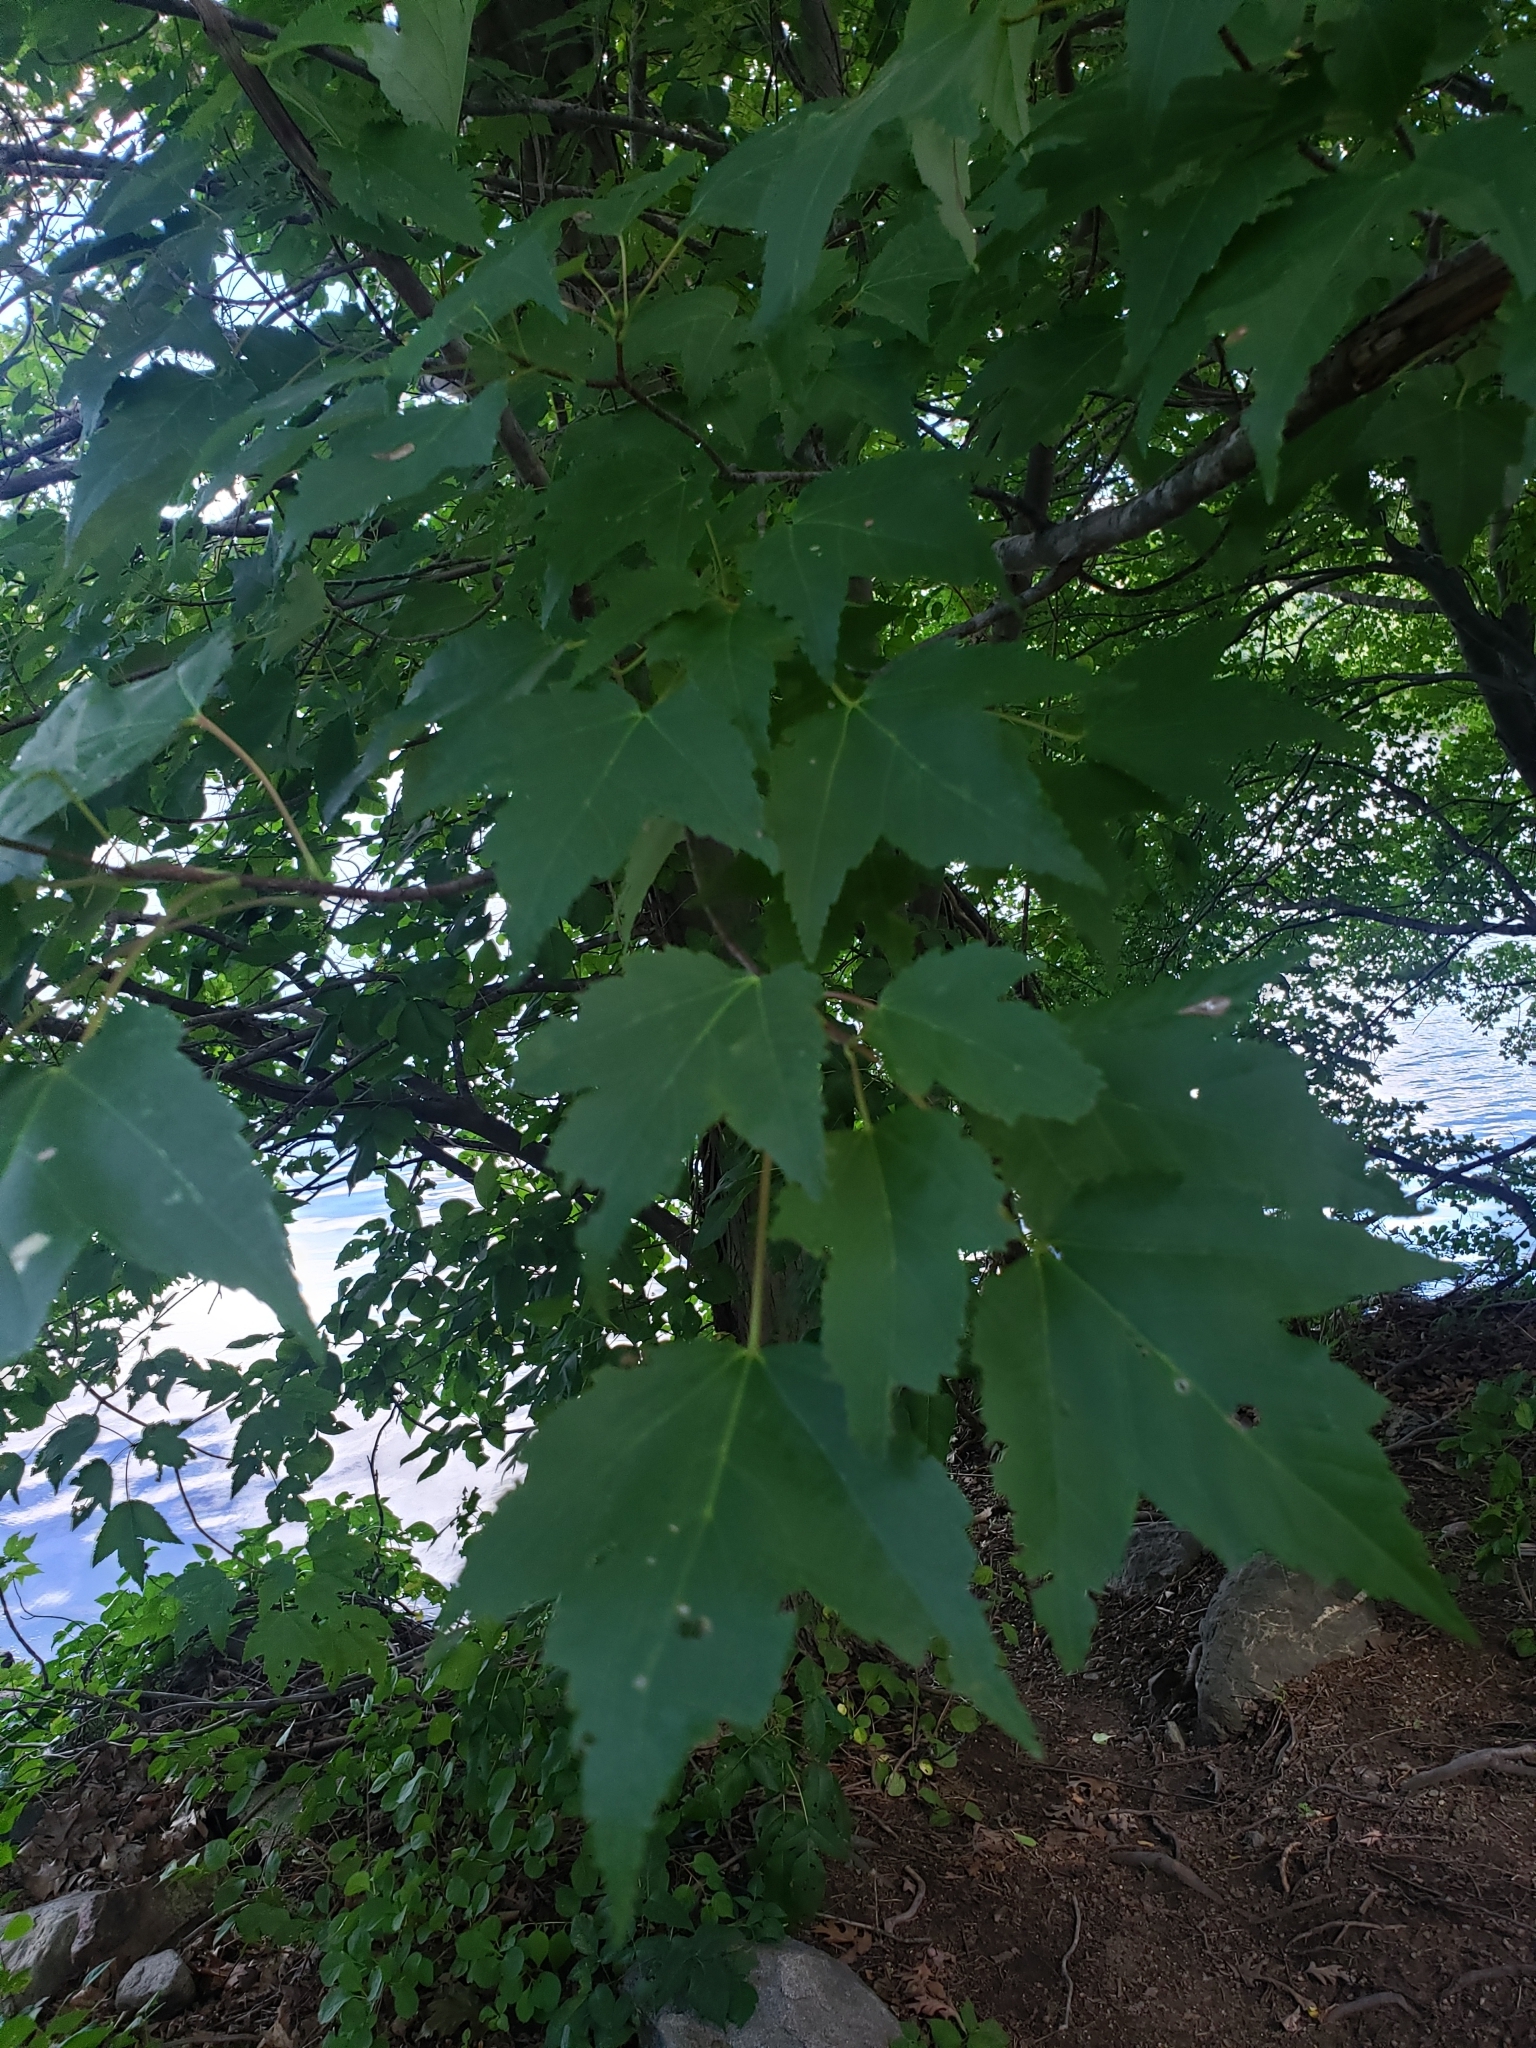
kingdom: Plantae
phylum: Tracheophyta
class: Magnoliopsida
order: Sapindales
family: Sapindaceae
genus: Acer
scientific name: Acer rubrum
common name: Red maple
